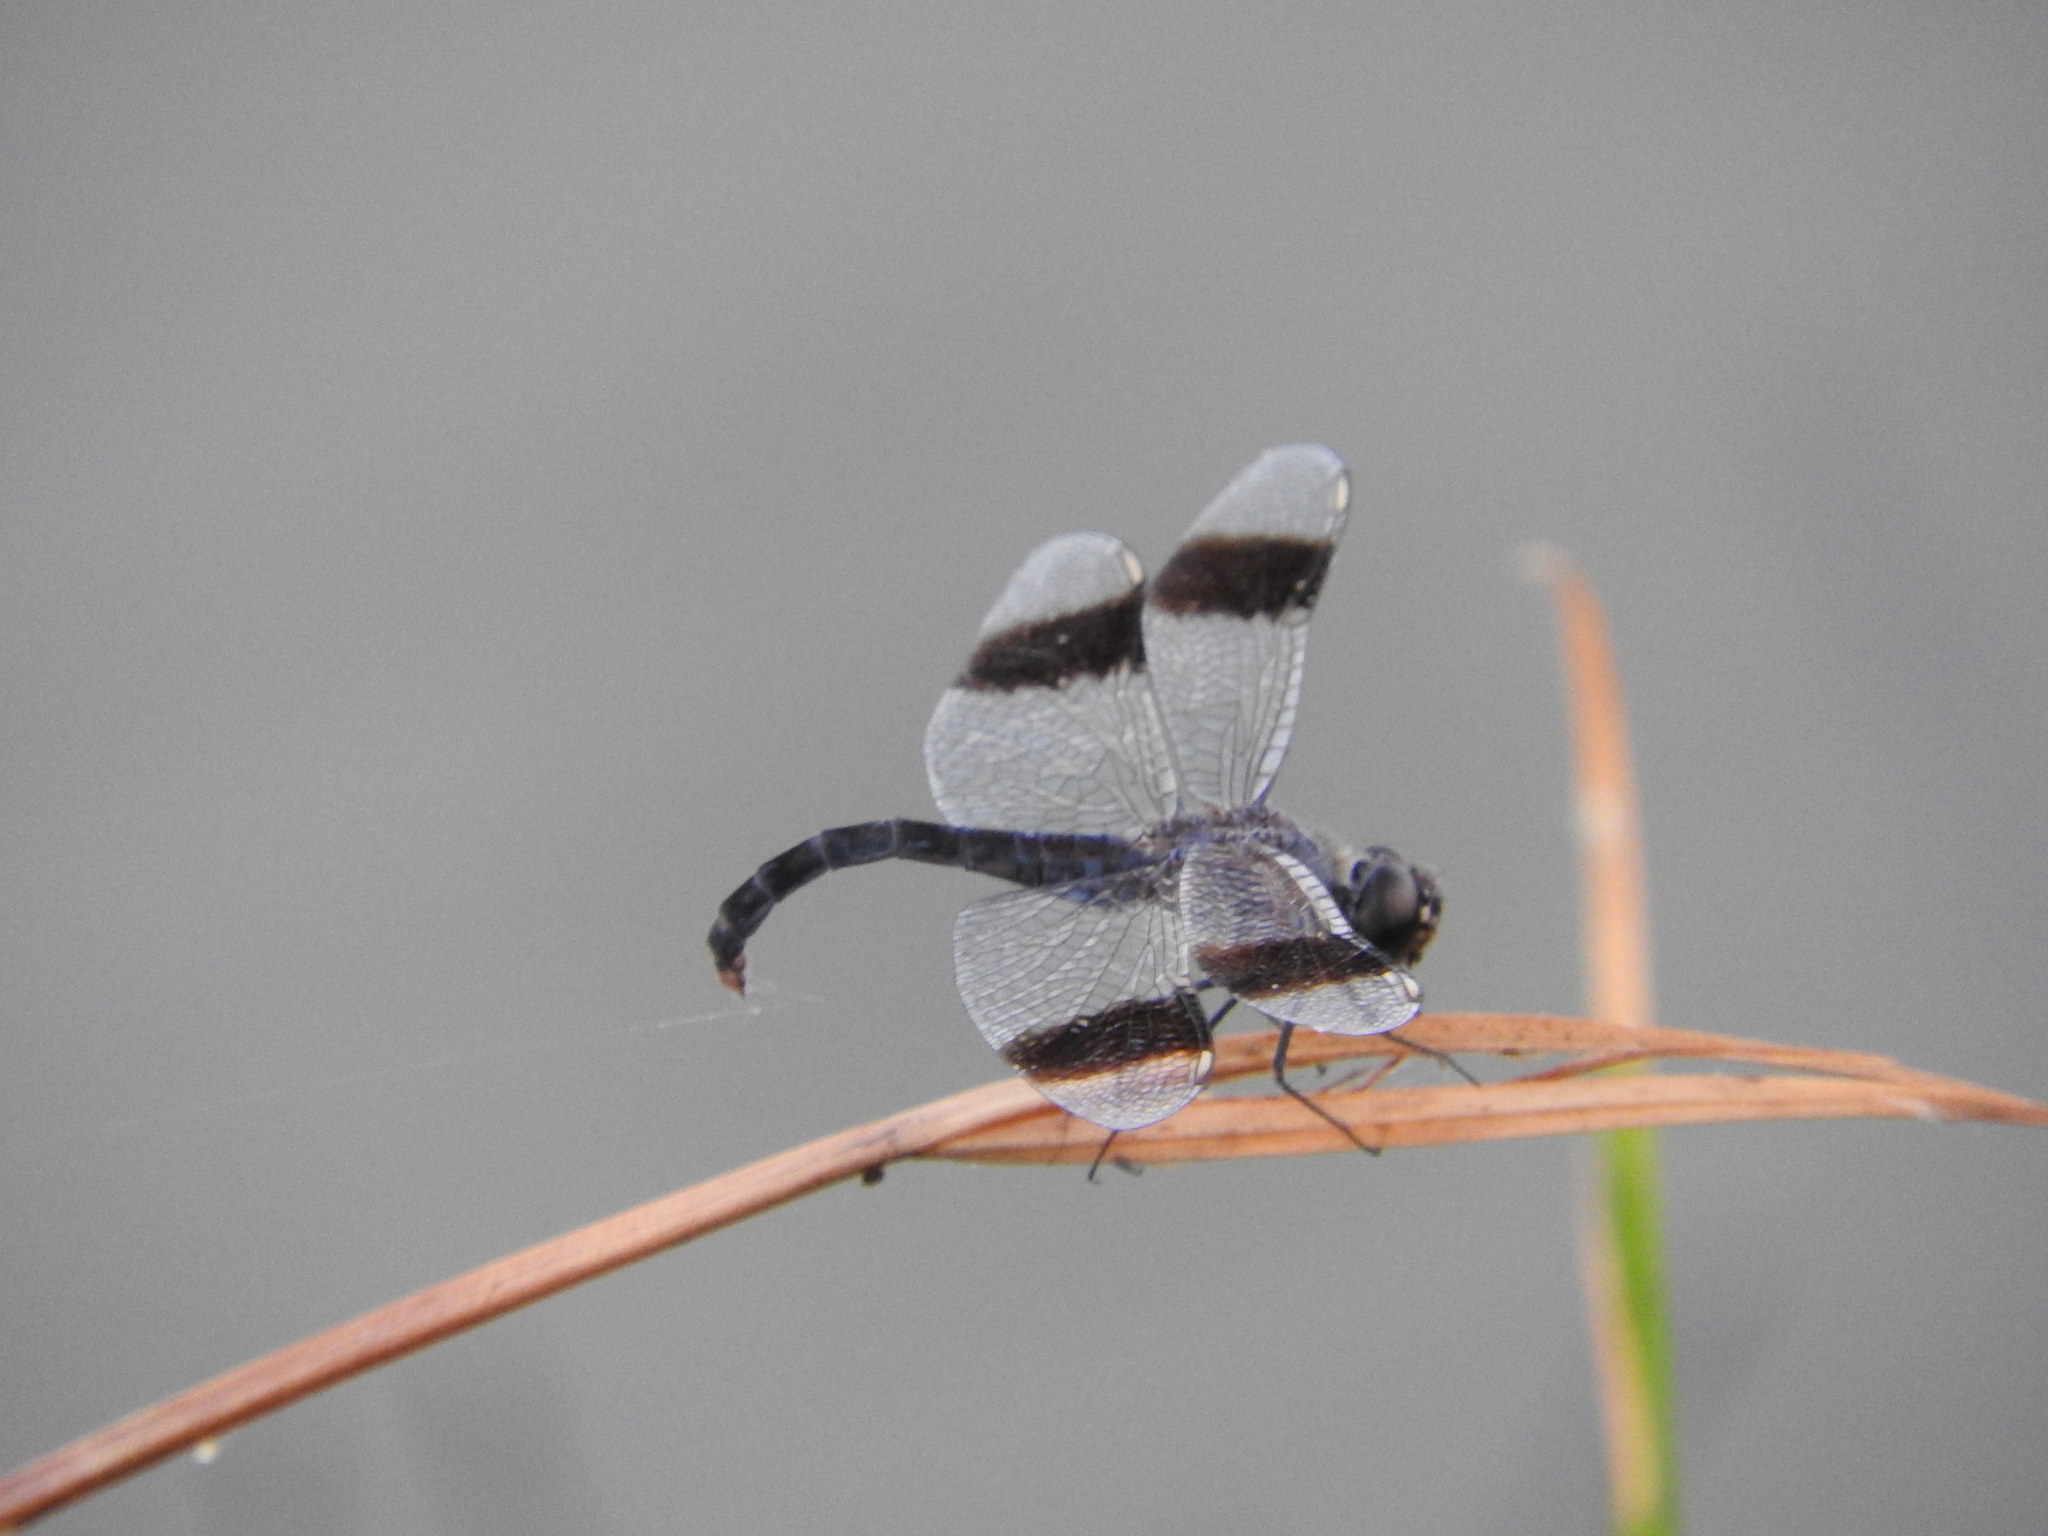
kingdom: Animalia
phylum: Arthropoda
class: Insecta
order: Odonata
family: Libellulidae
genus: Brachythemis
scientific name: Brachythemis leucosticta
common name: Banded groundling
